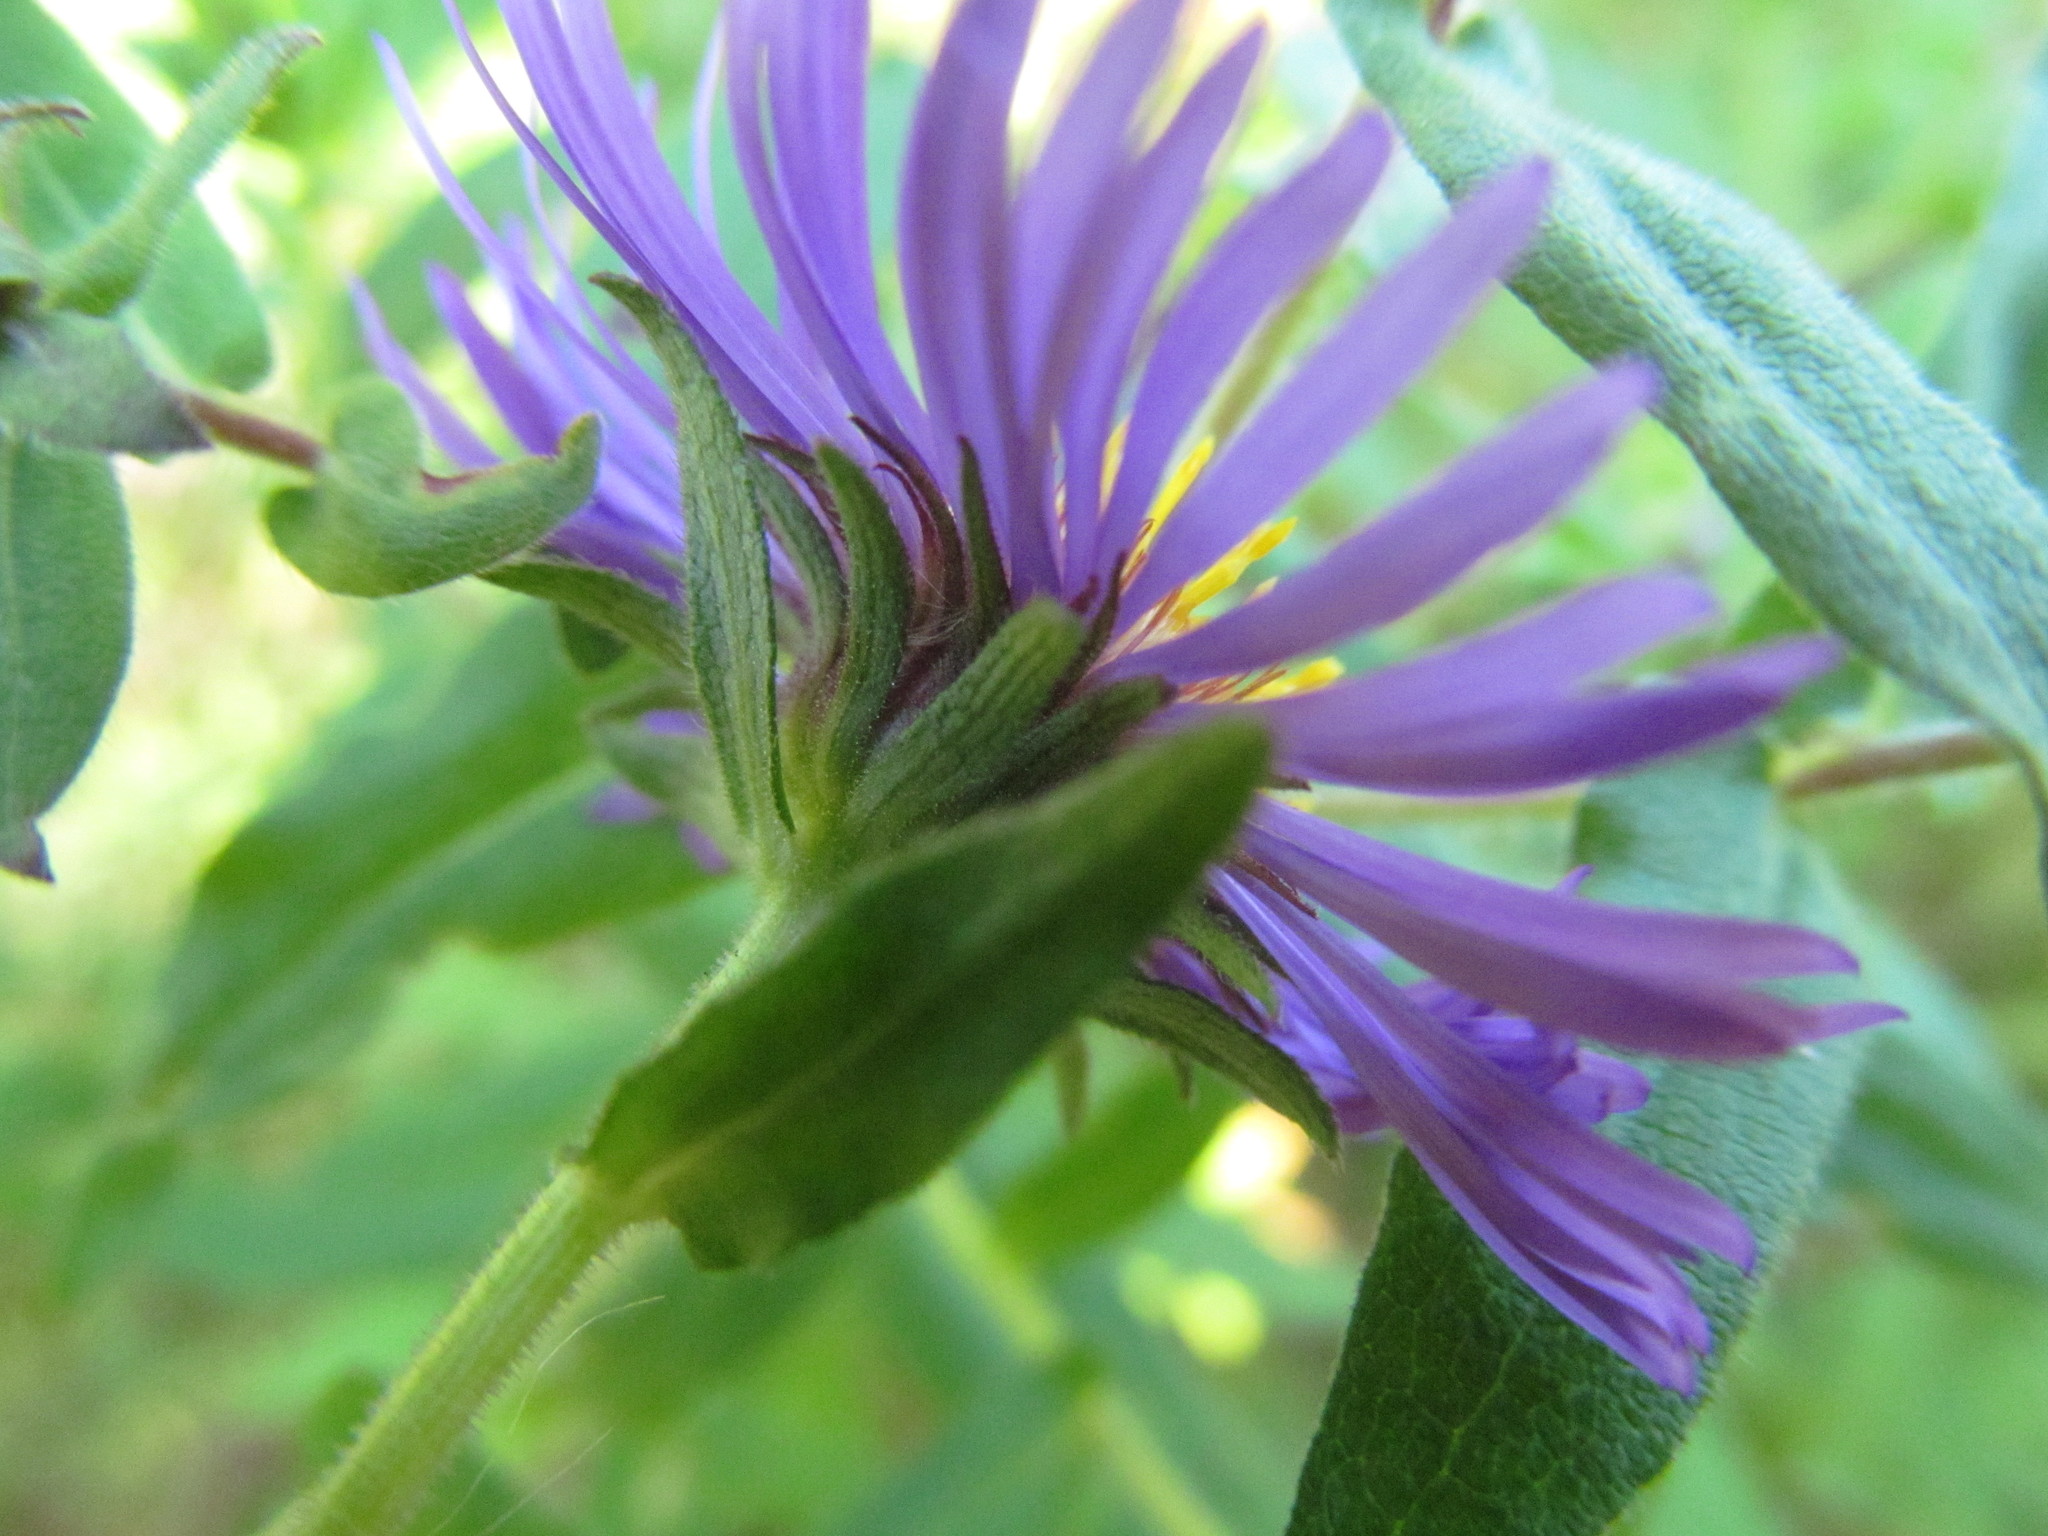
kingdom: Plantae
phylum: Tracheophyta
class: Magnoliopsida
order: Asterales
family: Asteraceae
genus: Symphyotrichum
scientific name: Symphyotrichum novae-angliae
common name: Michaelmas daisy
